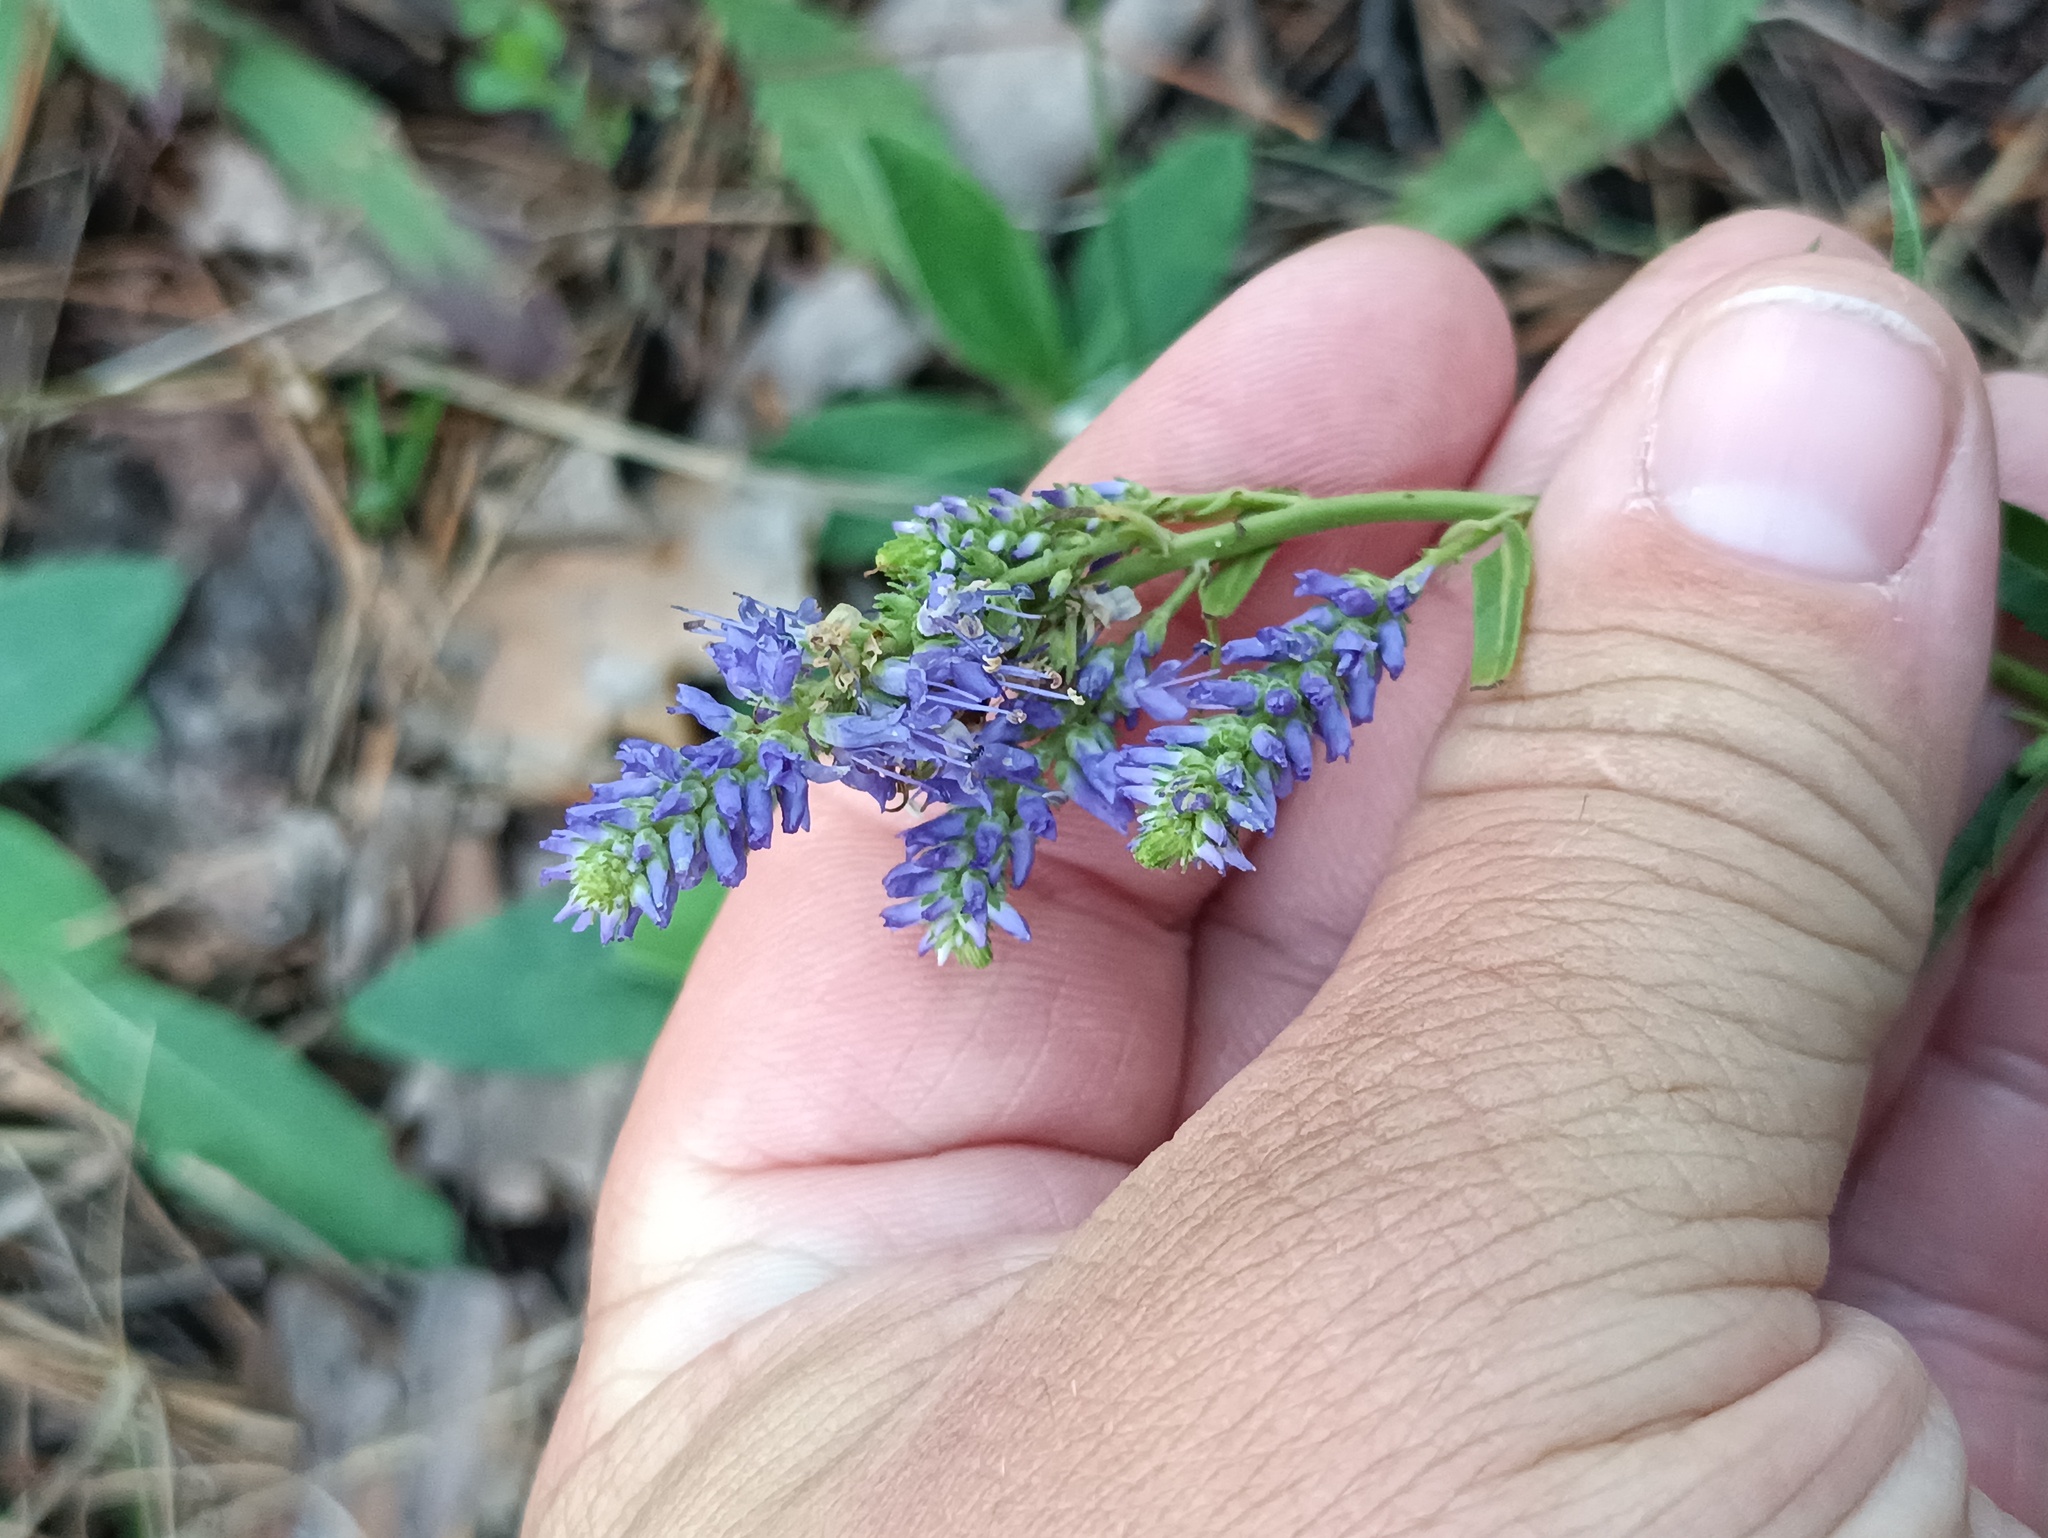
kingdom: Plantae
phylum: Tracheophyta
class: Magnoliopsida
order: Lamiales
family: Plantaginaceae
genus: Veronica
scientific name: Veronica spicata
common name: Spiked speedwell
